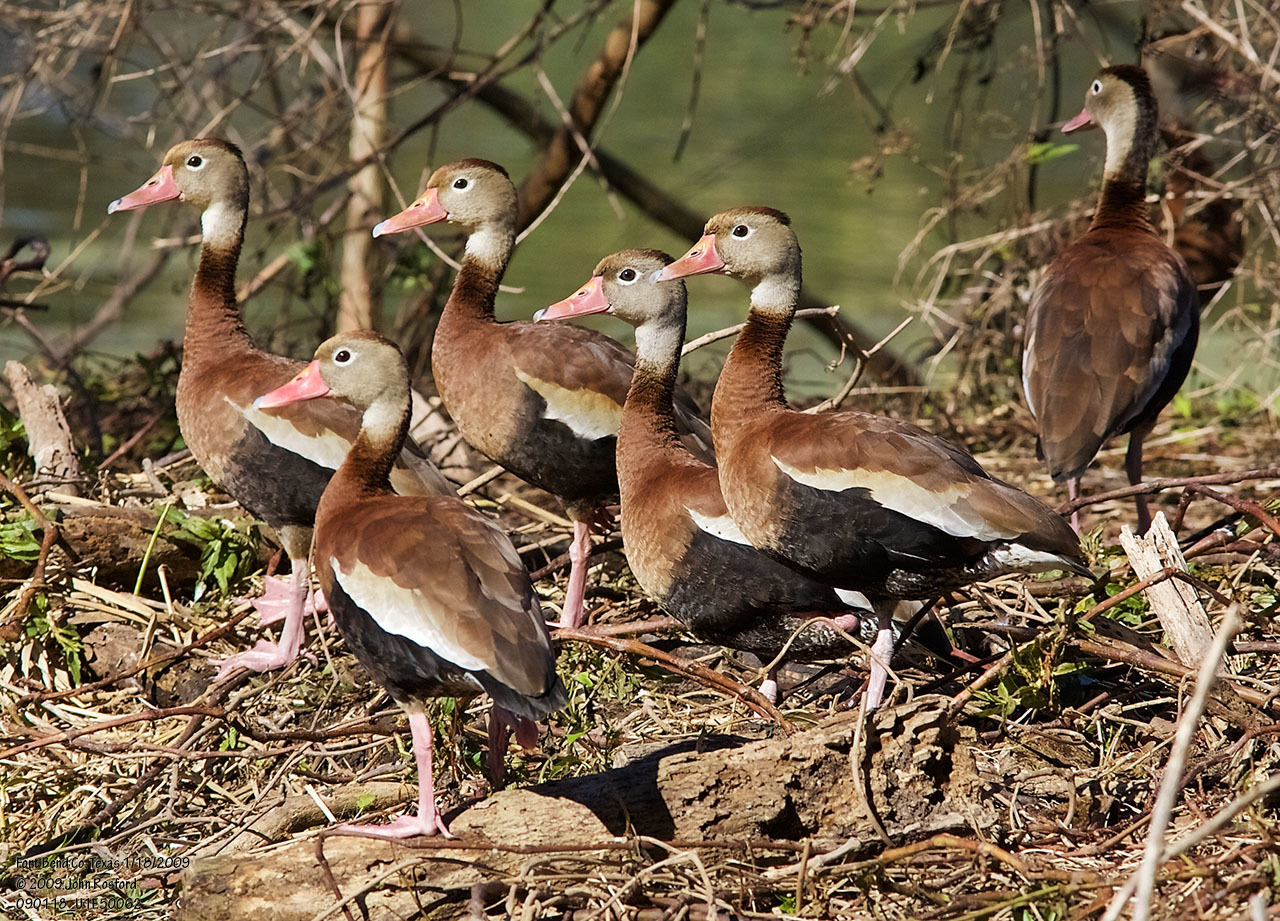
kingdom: Animalia
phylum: Chordata
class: Aves
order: Anseriformes
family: Anatidae
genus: Dendrocygna
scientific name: Dendrocygna autumnalis
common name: Black-bellied whistling duck
